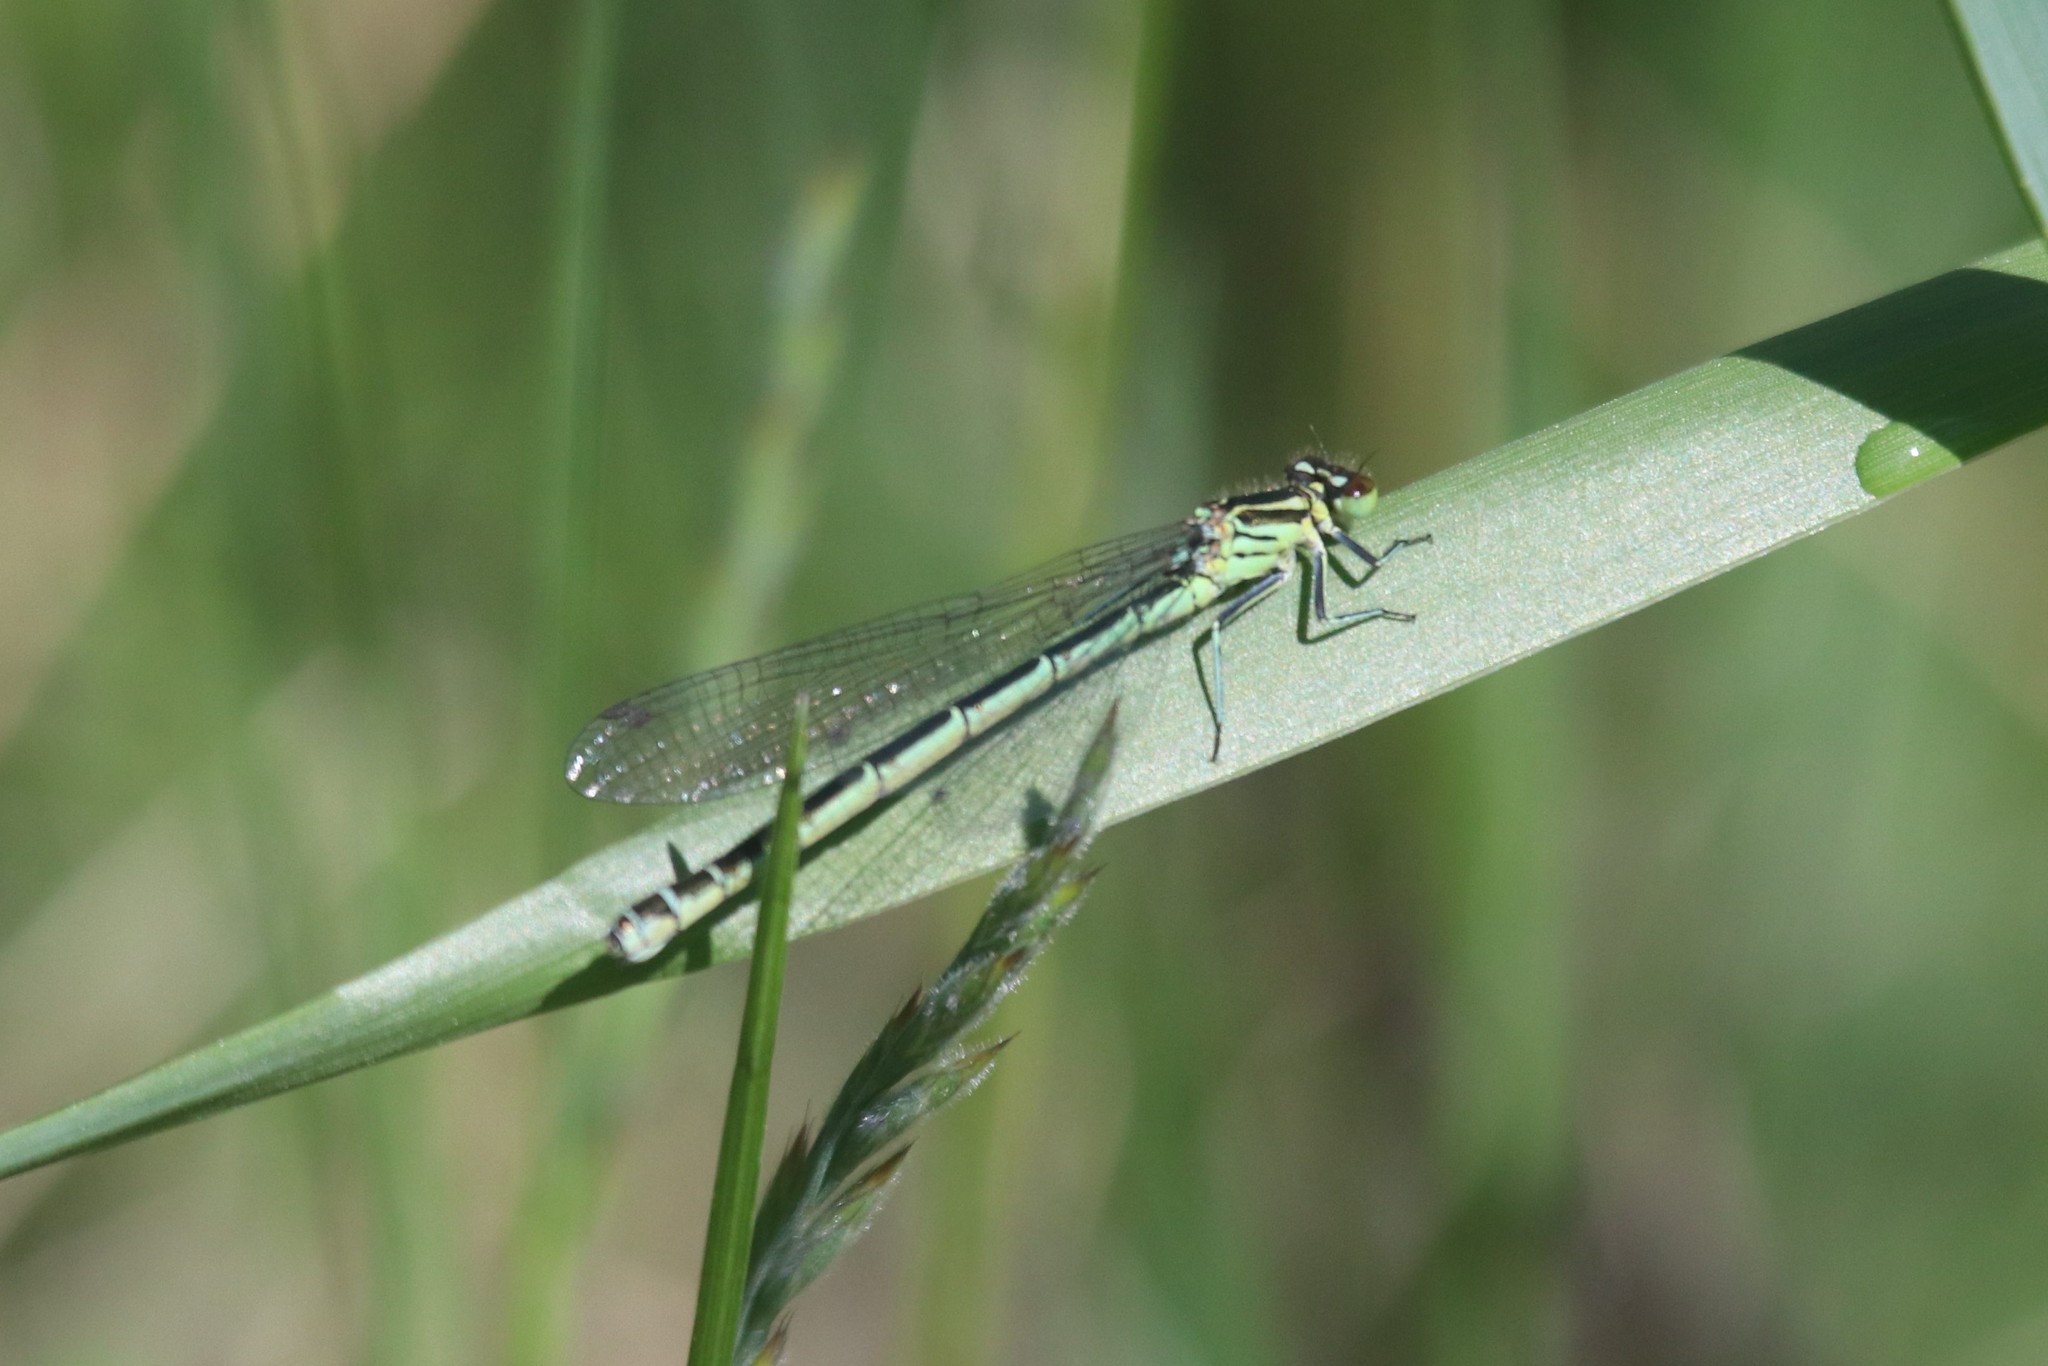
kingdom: Animalia
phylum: Arthropoda
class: Insecta
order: Odonata
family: Coenagrionidae
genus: Coenagrion
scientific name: Coenagrion hastulatum
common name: Spearhead bluet
